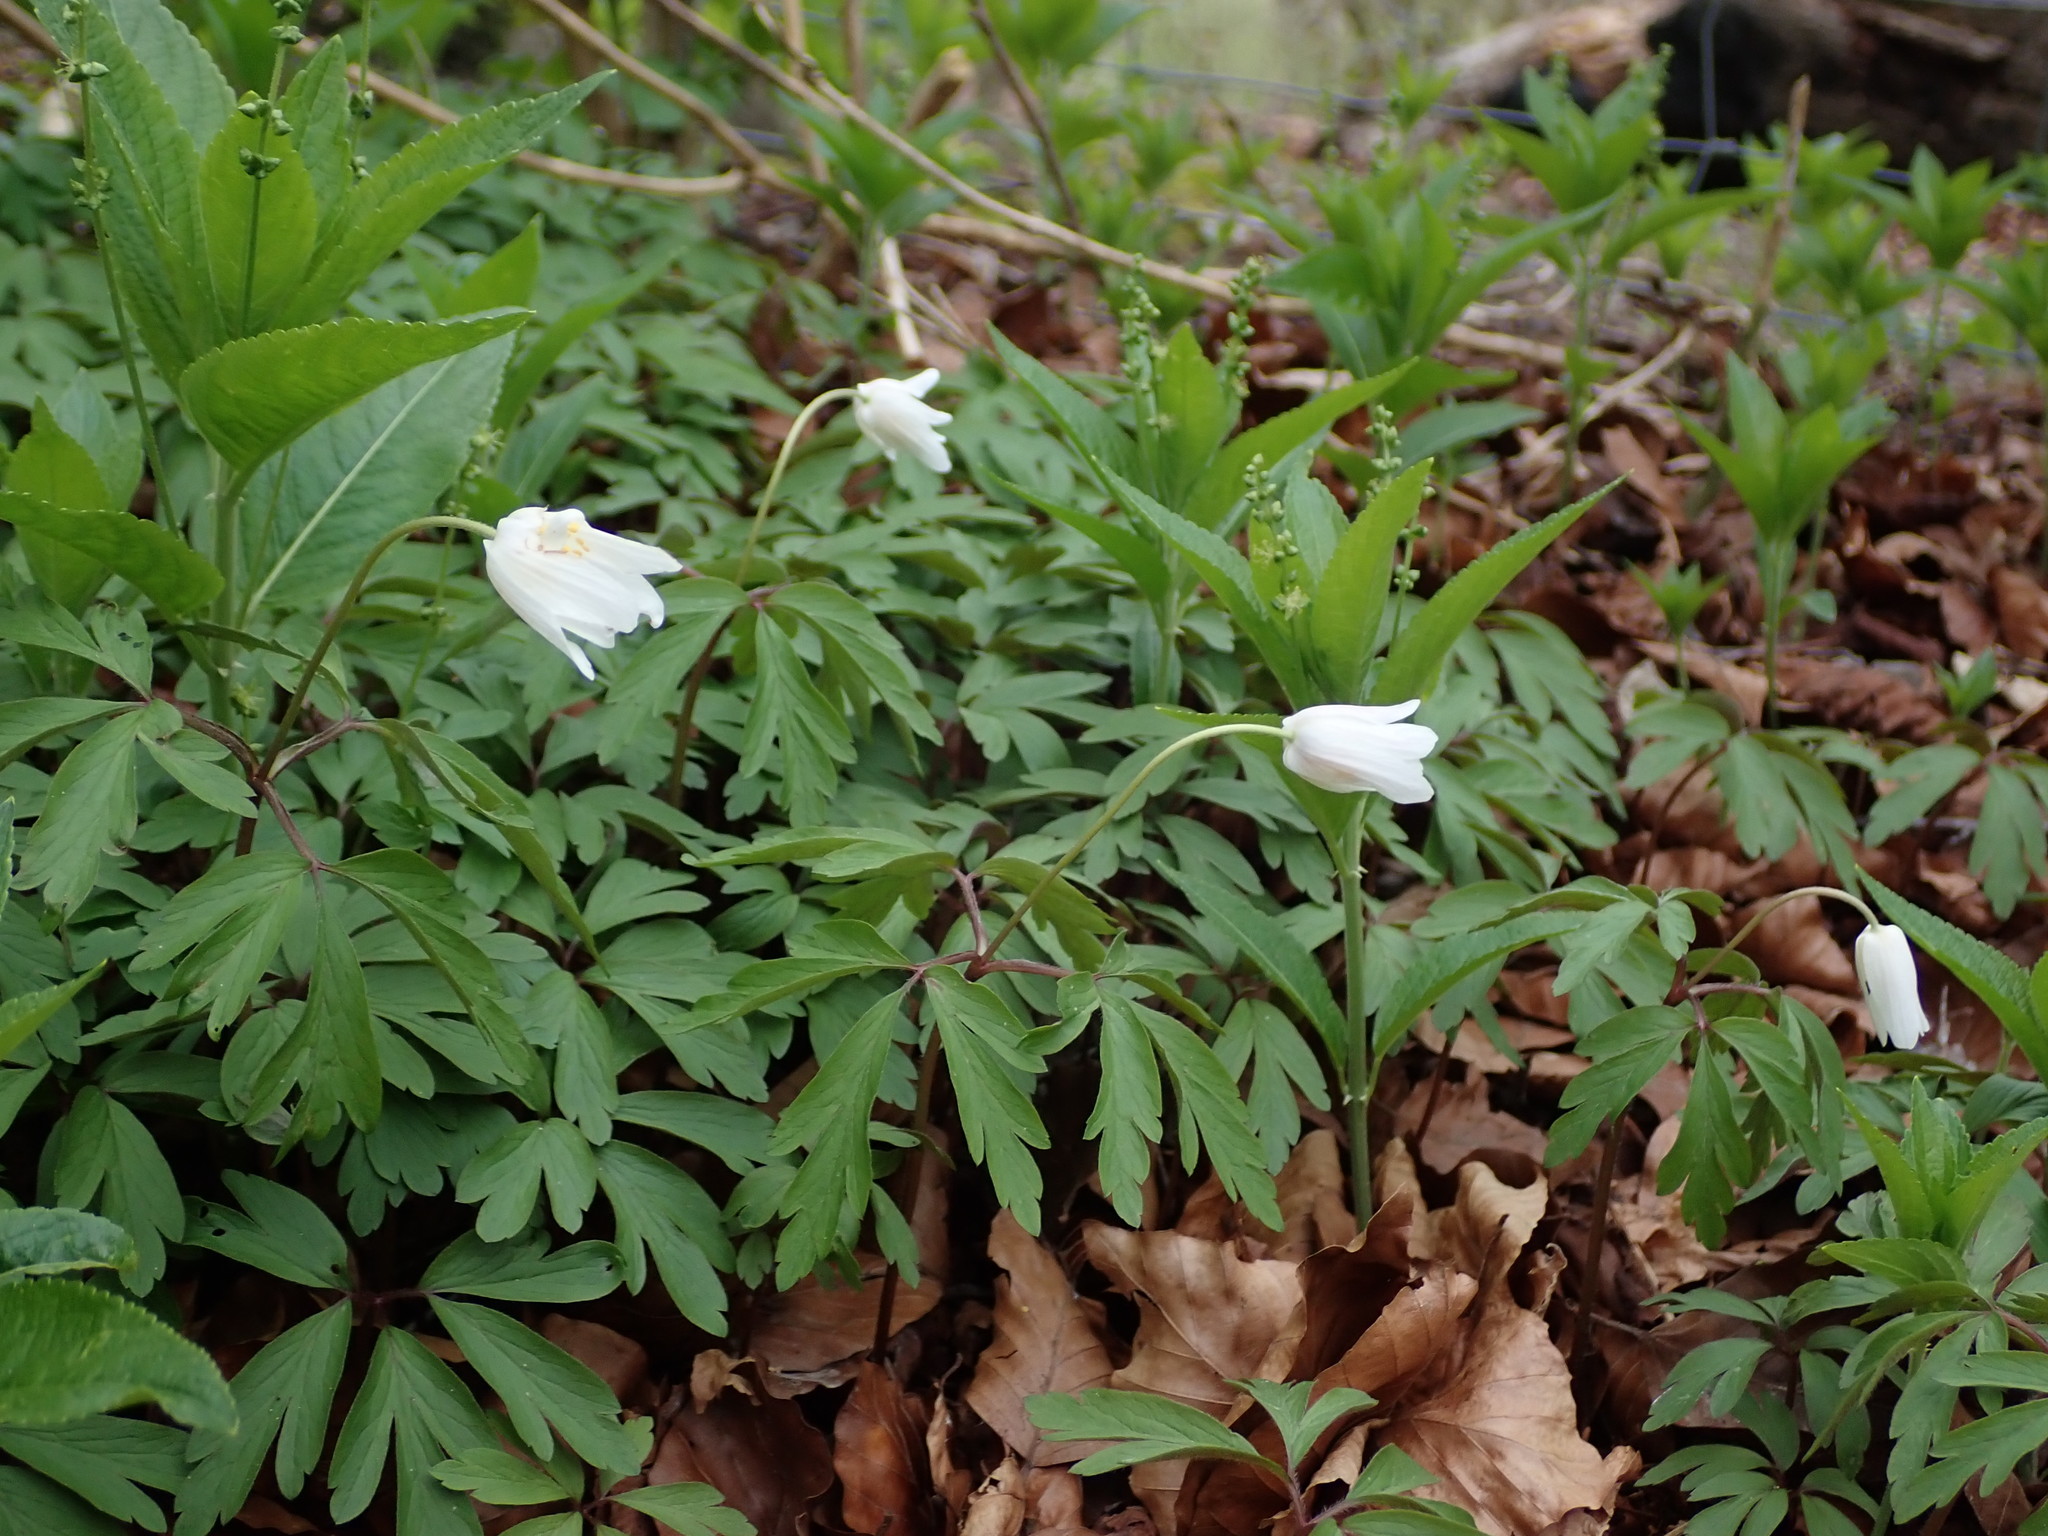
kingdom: Plantae
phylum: Tracheophyta
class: Magnoliopsida
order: Ranunculales
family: Ranunculaceae
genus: Anemone
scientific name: Anemone nemorosa
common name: Wood anemone
